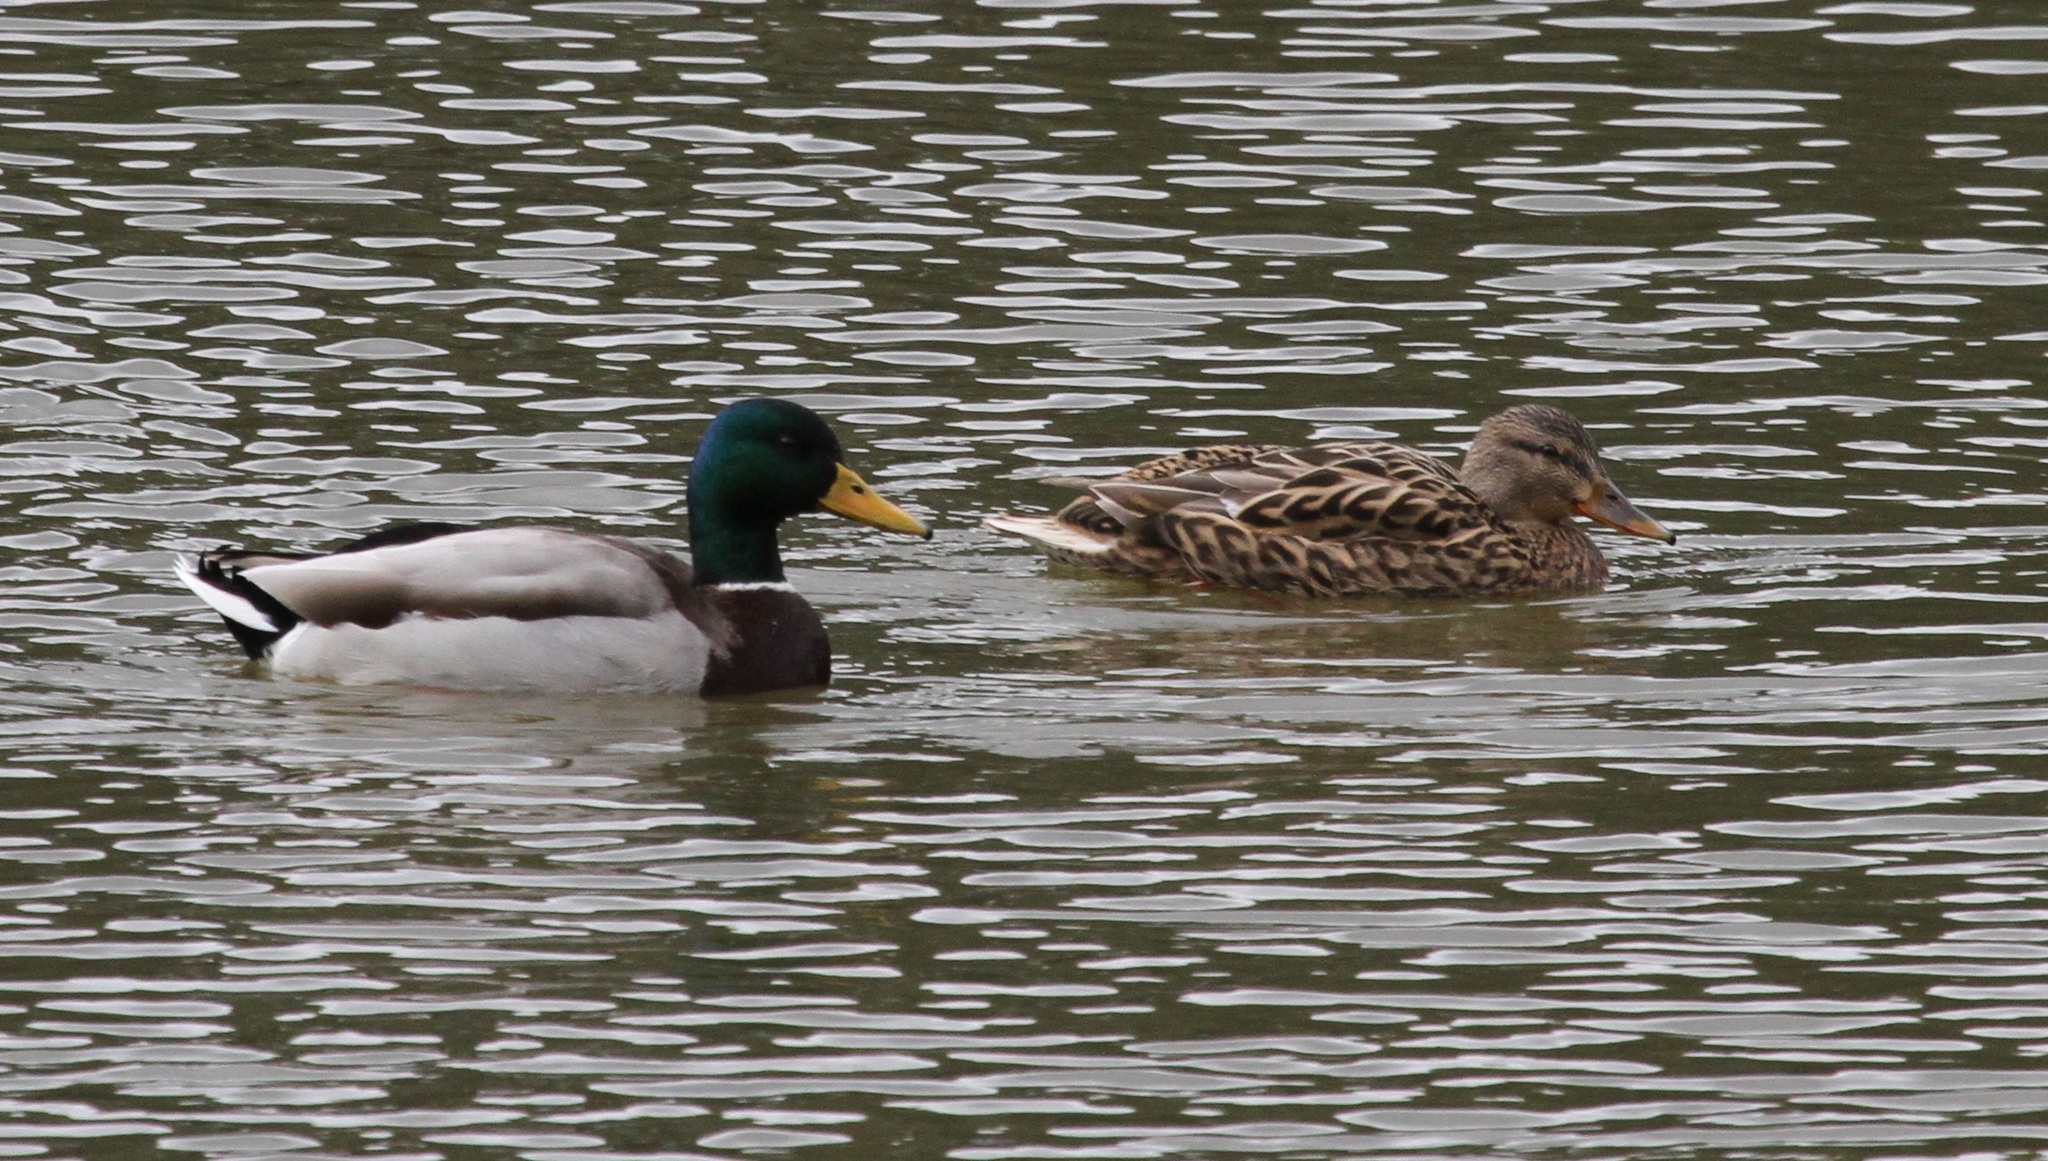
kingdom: Animalia
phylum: Chordata
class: Aves
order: Anseriformes
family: Anatidae
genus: Anas
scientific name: Anas platyrhynchos
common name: Mallard
